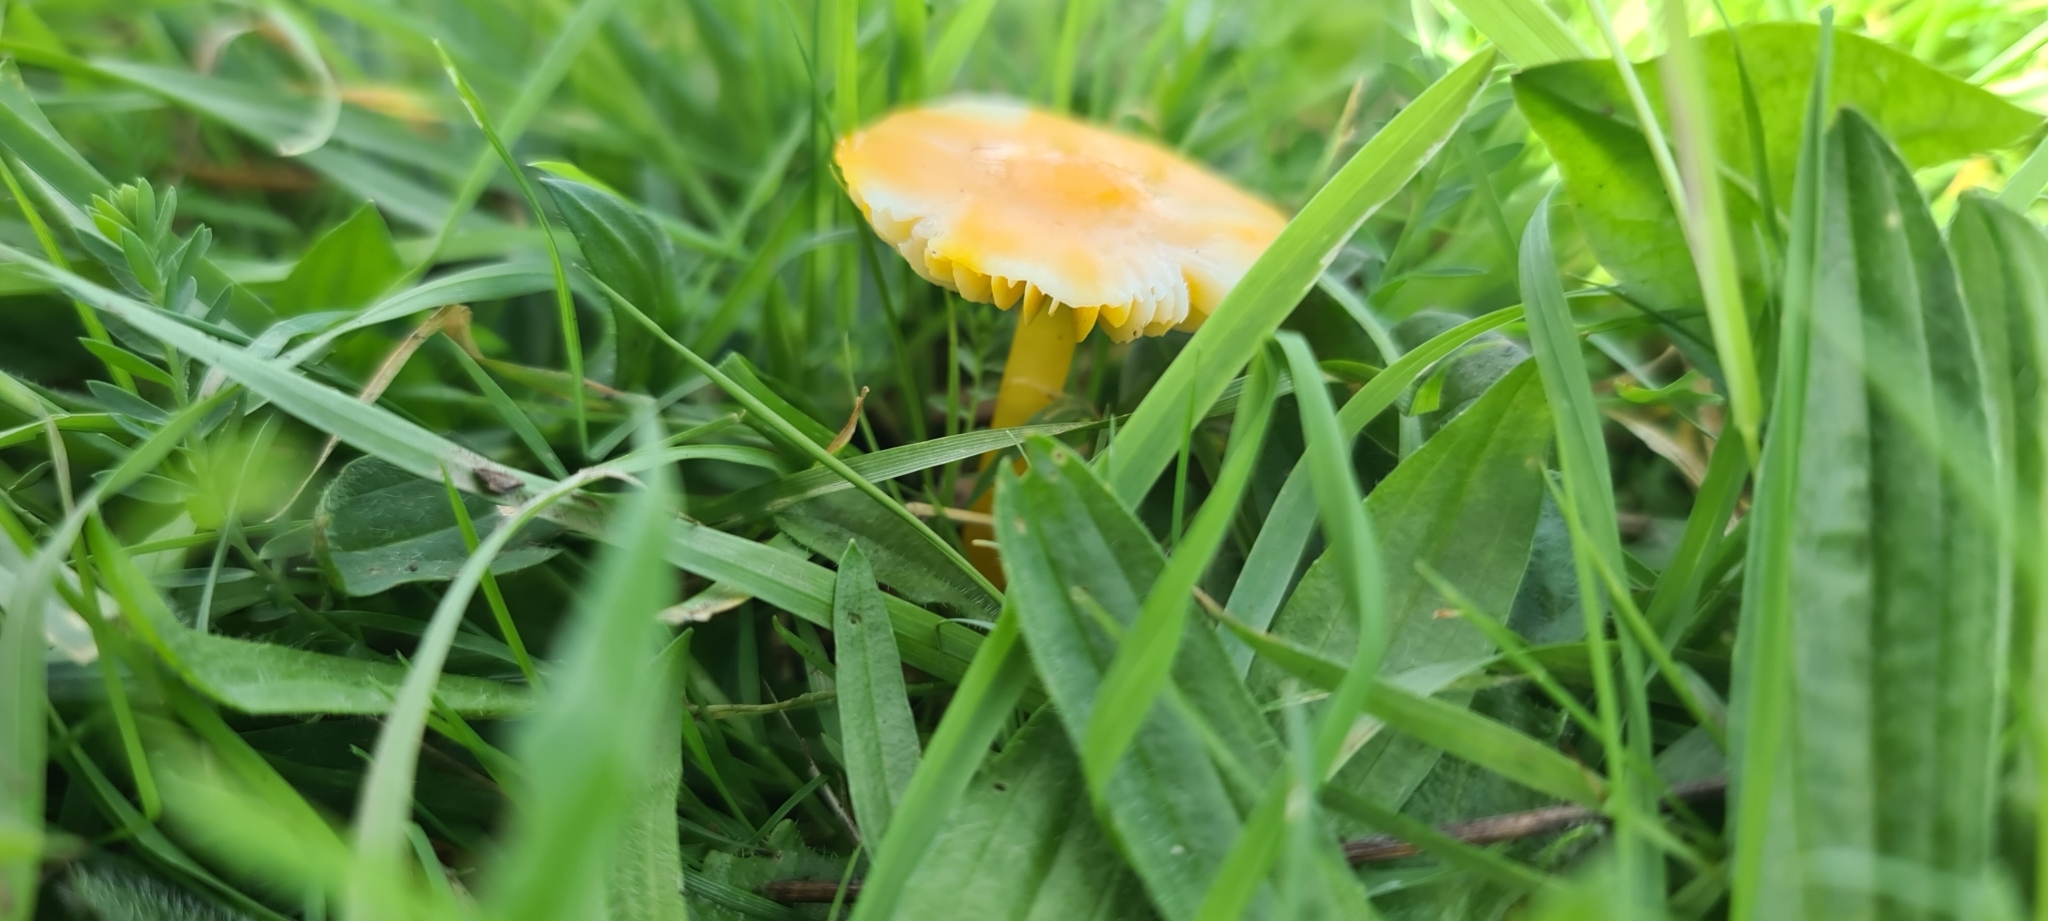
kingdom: Fungi
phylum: Basidiomycota
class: Agaricomycetes
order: Agaricales
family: Hygrophoraceae
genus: Gliophorus
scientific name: Gliophorus psittacinus
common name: Parrot wax-cap
